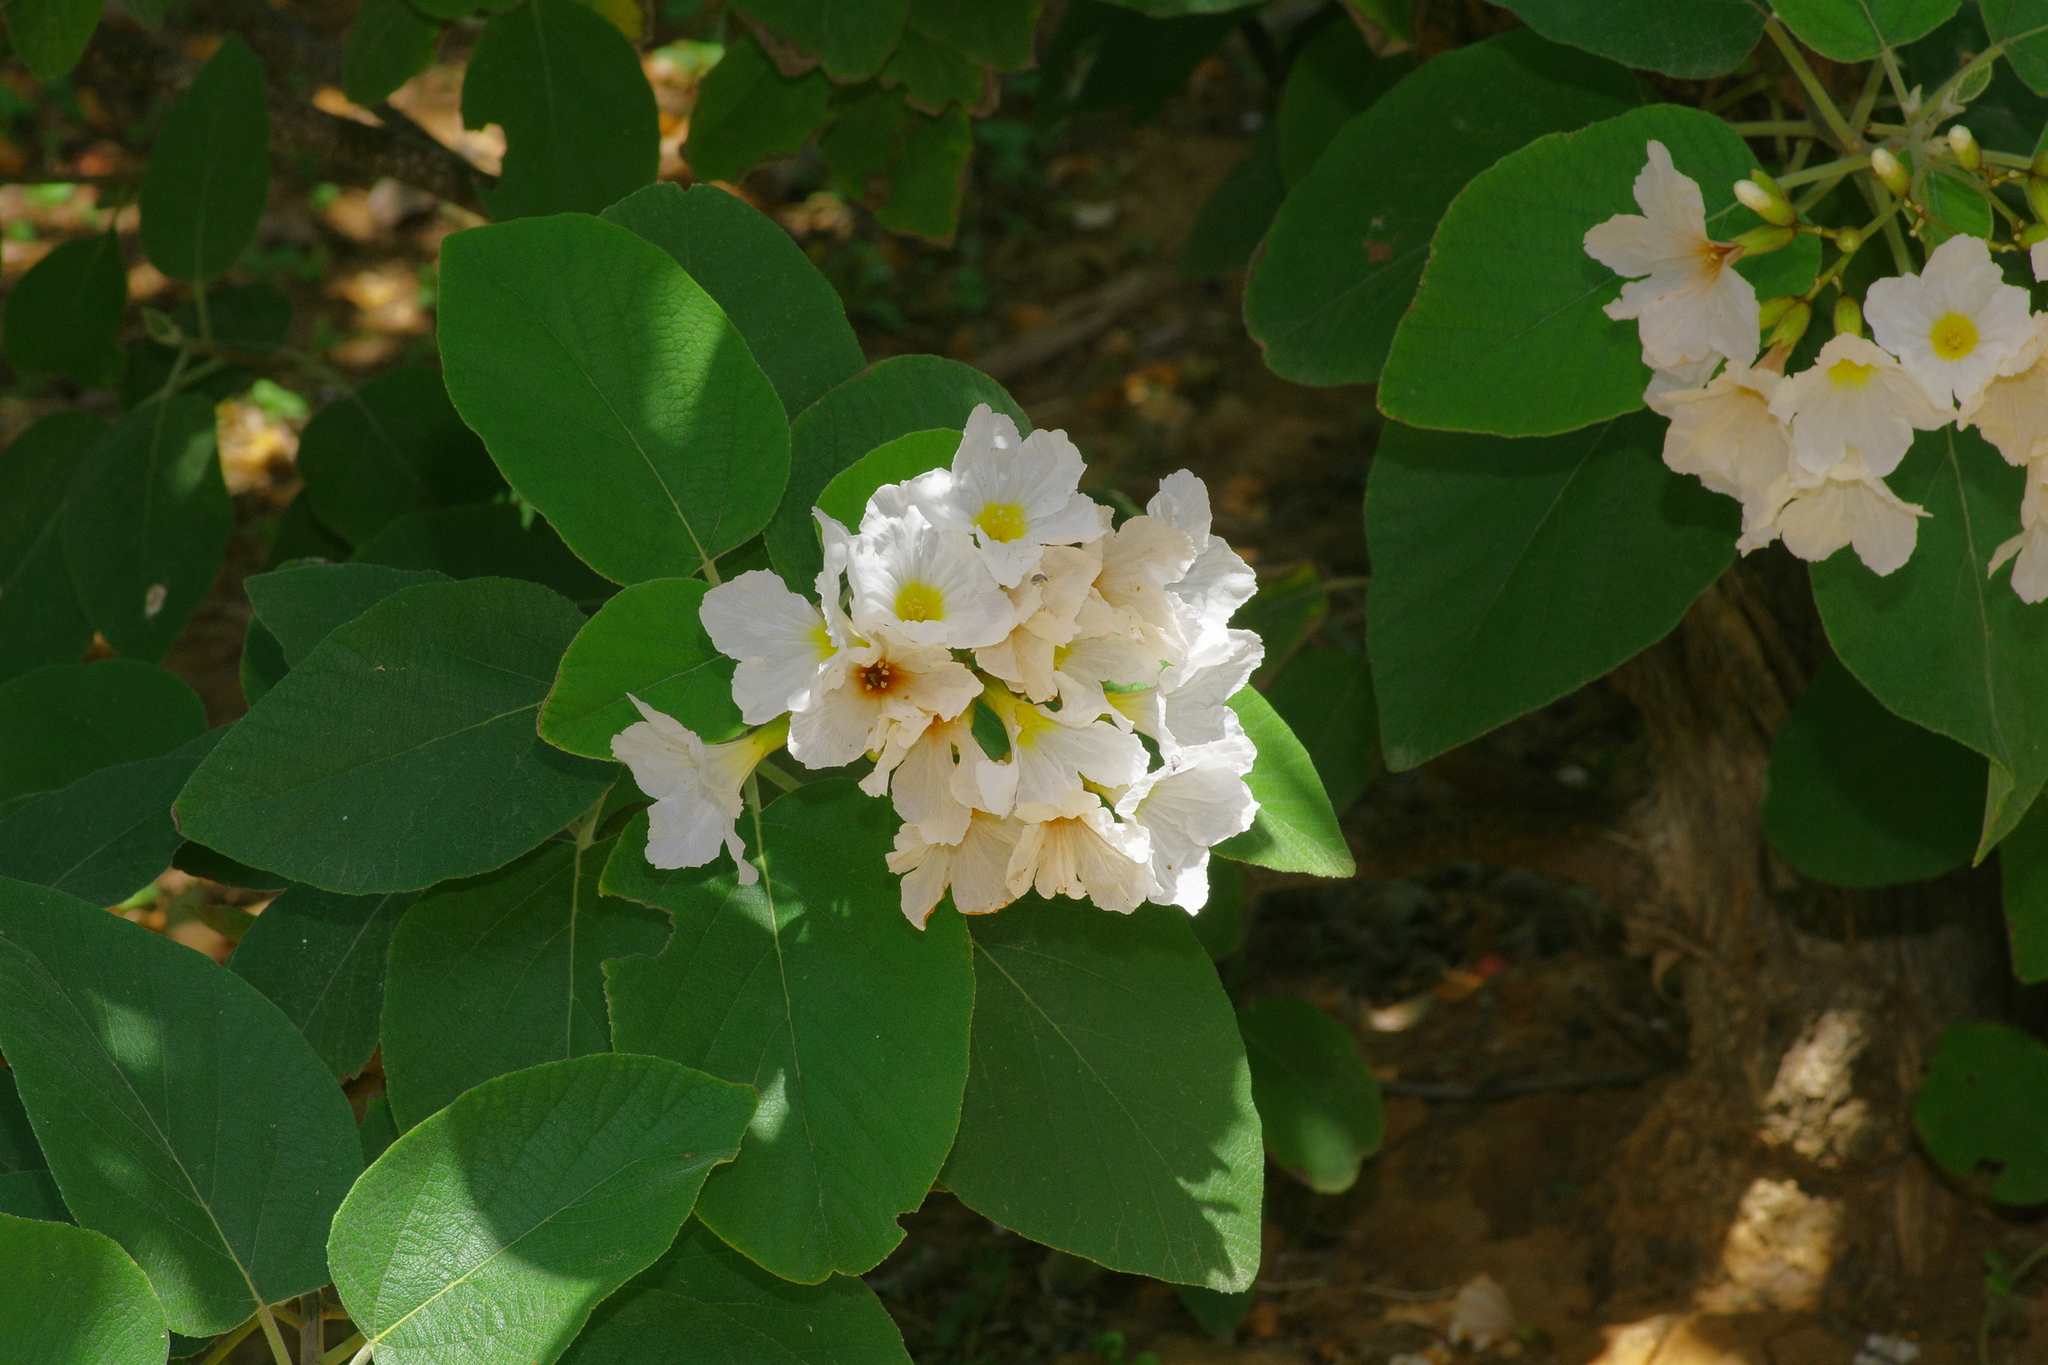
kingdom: Plantae
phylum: Tracheophyta
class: Magnoliopsida
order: Boraginales
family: Cordiaceae
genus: Cordia
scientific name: Cordia boissieri
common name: Mexican-olive
